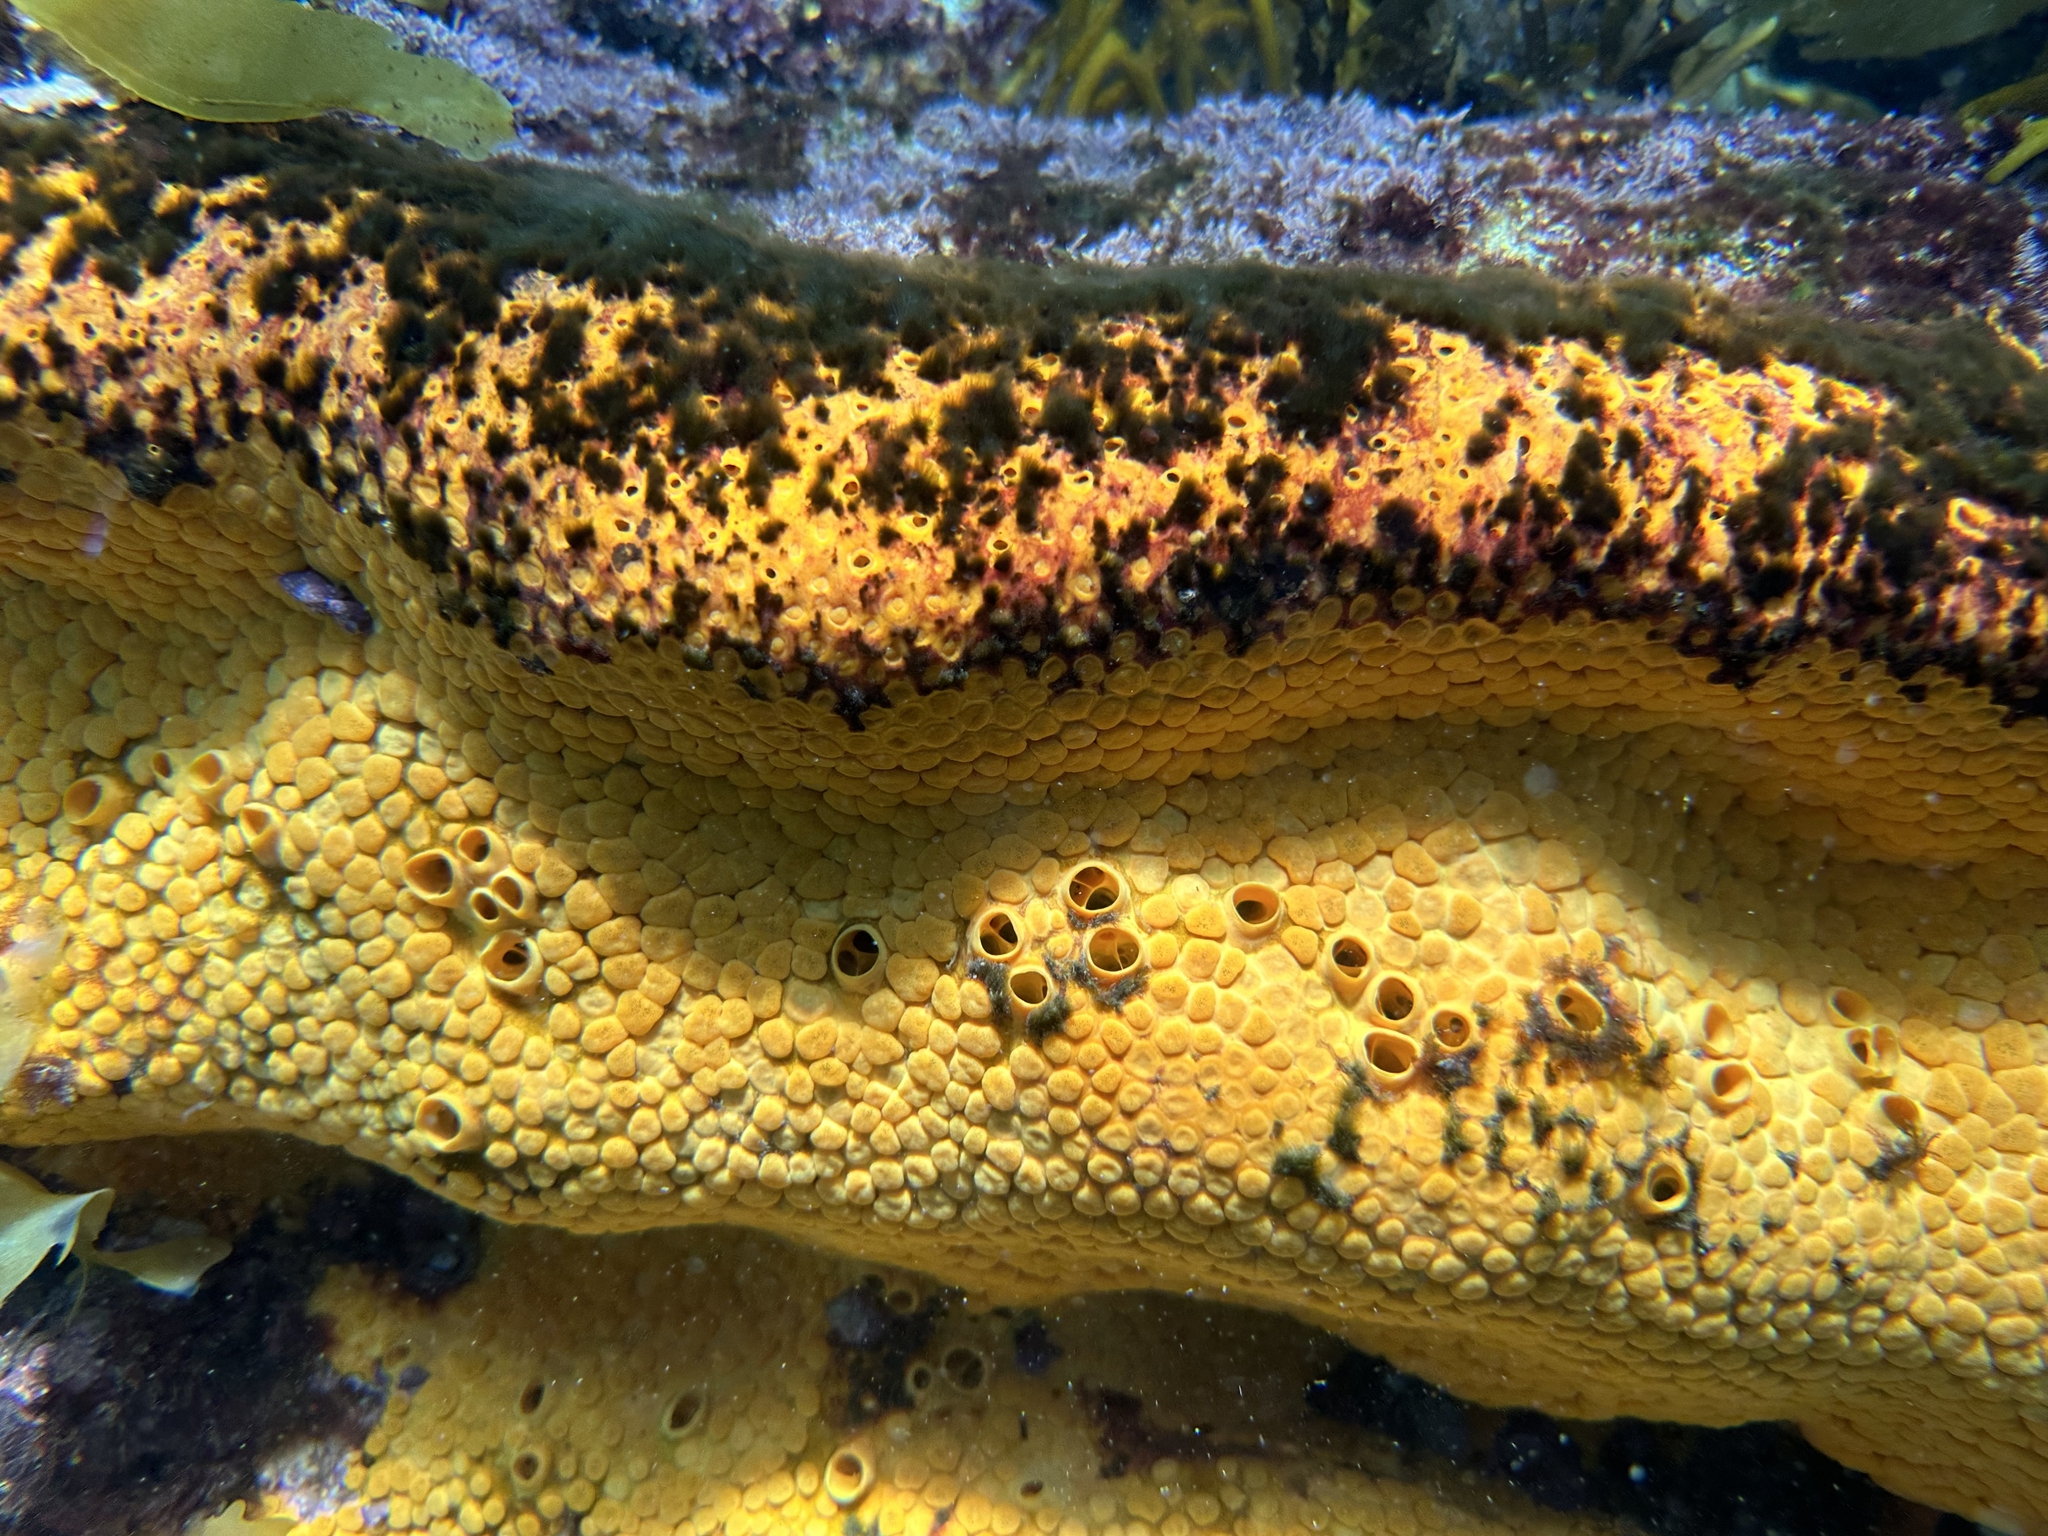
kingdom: Animalia
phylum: Porifera
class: Demospongiae
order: Clionaida
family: Clionaidae
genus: Cliona
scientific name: Cliona celata
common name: Boring sponge
